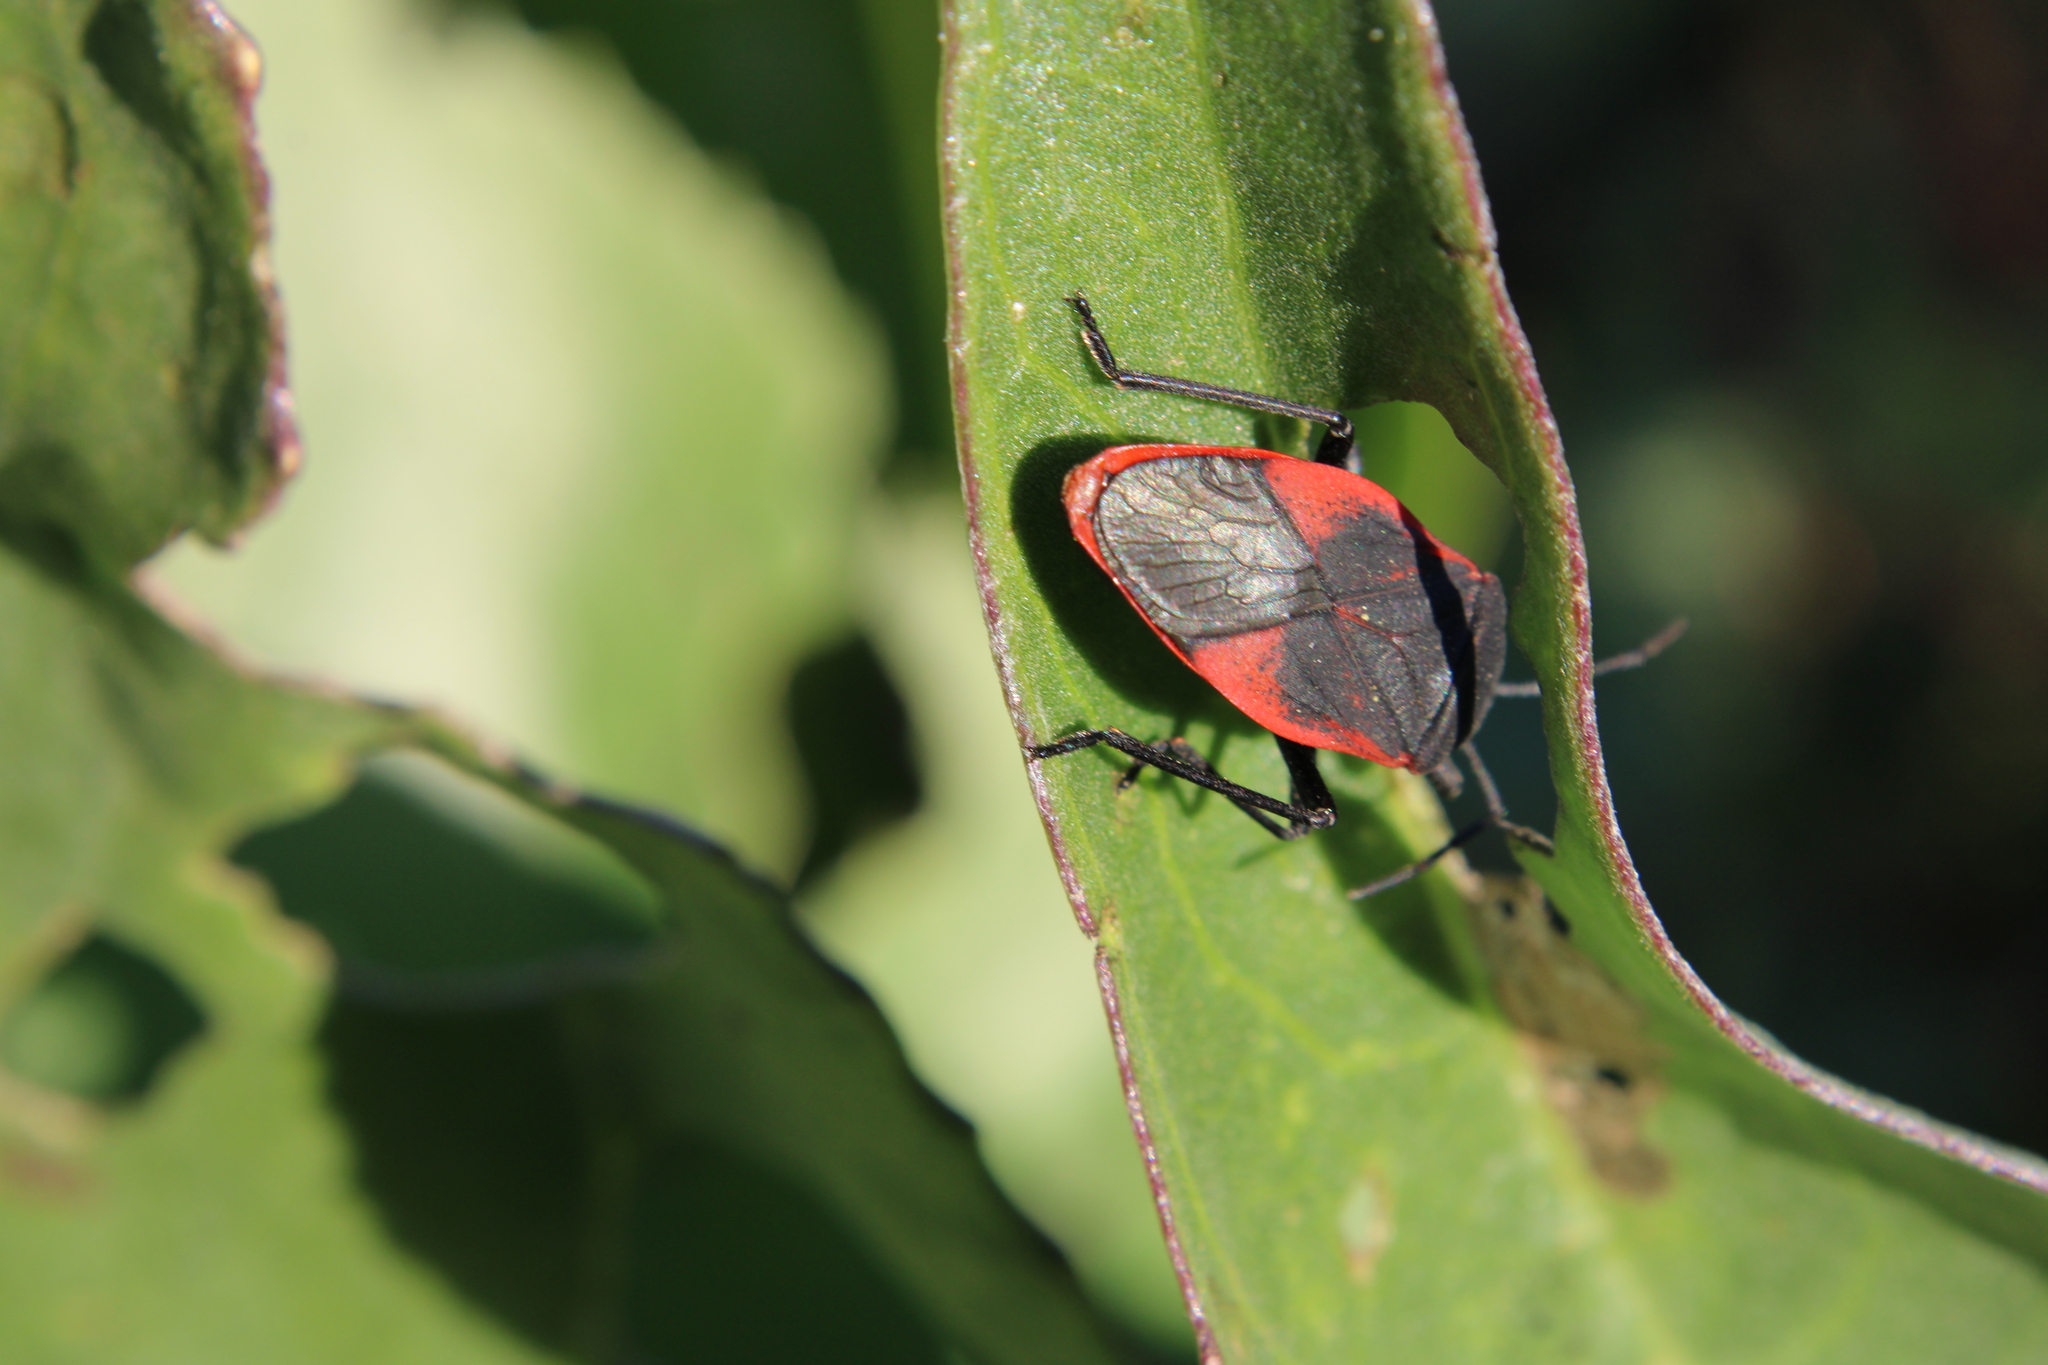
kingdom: Animalia
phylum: Arthropoda
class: Insecta
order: Hemiptera
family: Largidae
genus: Largus
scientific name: Largus rufipennis
